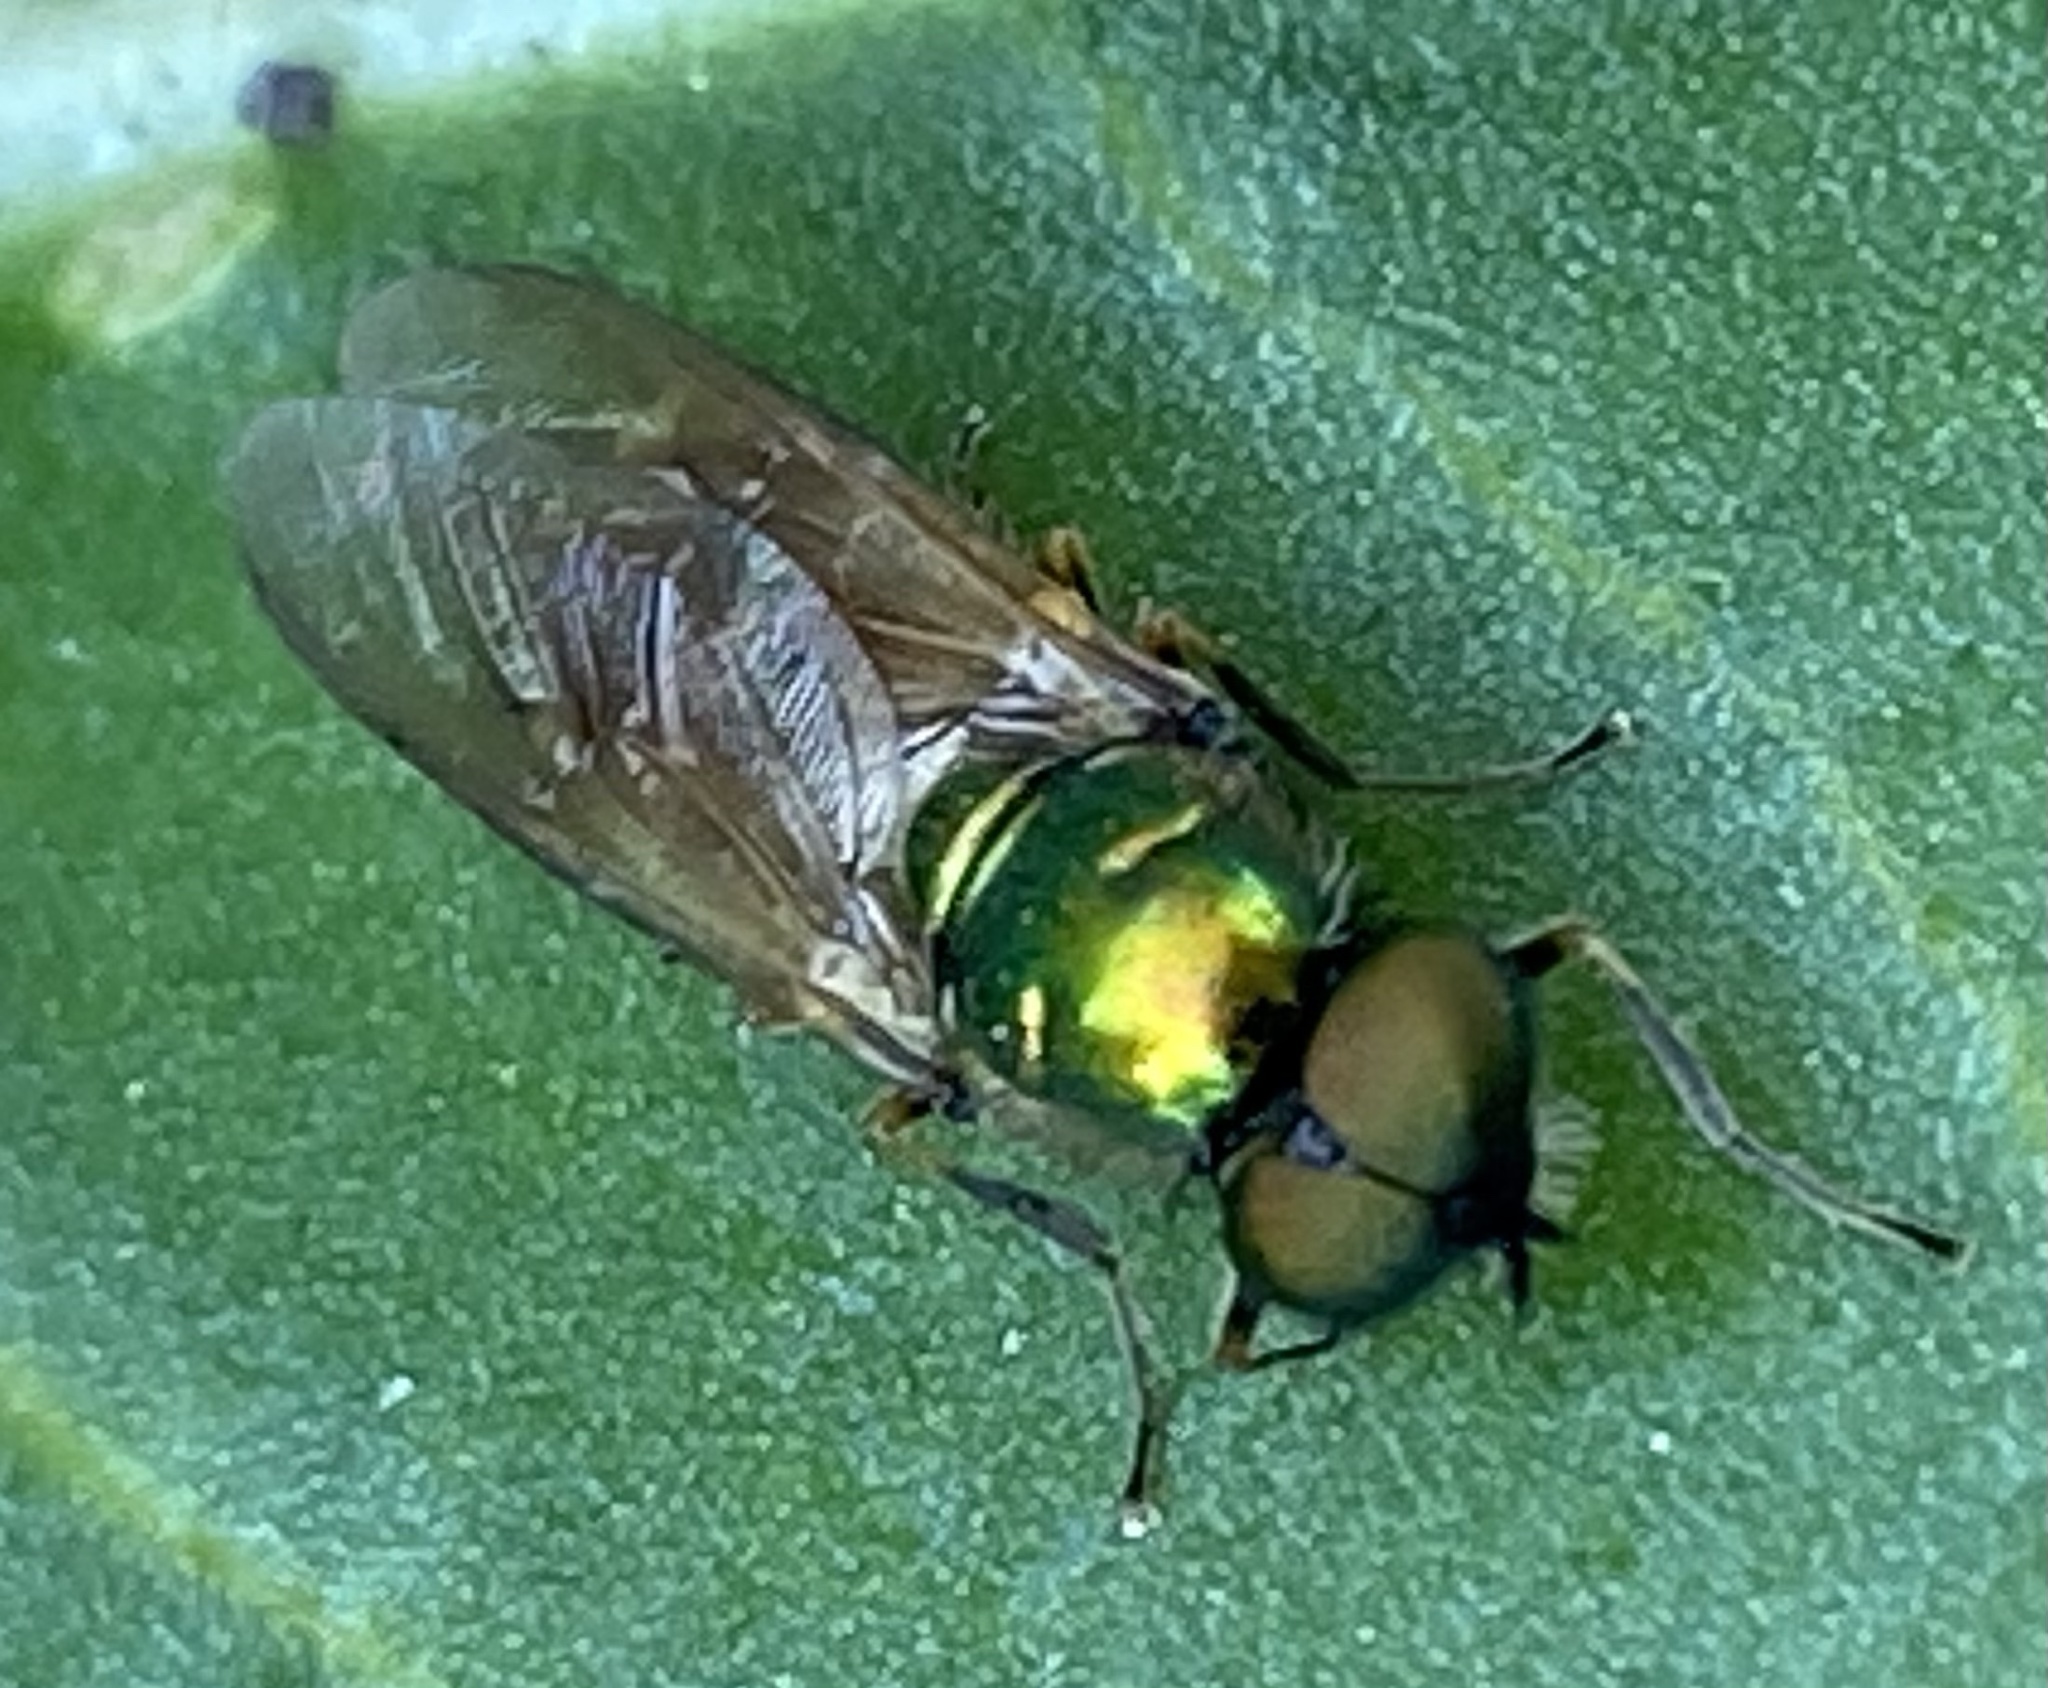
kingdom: Animalia
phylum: Arthropoda
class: Insecta
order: Diptera
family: Stratiomyidae
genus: Chloromyia
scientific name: Chloromyia formosa
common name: Soldier fly
